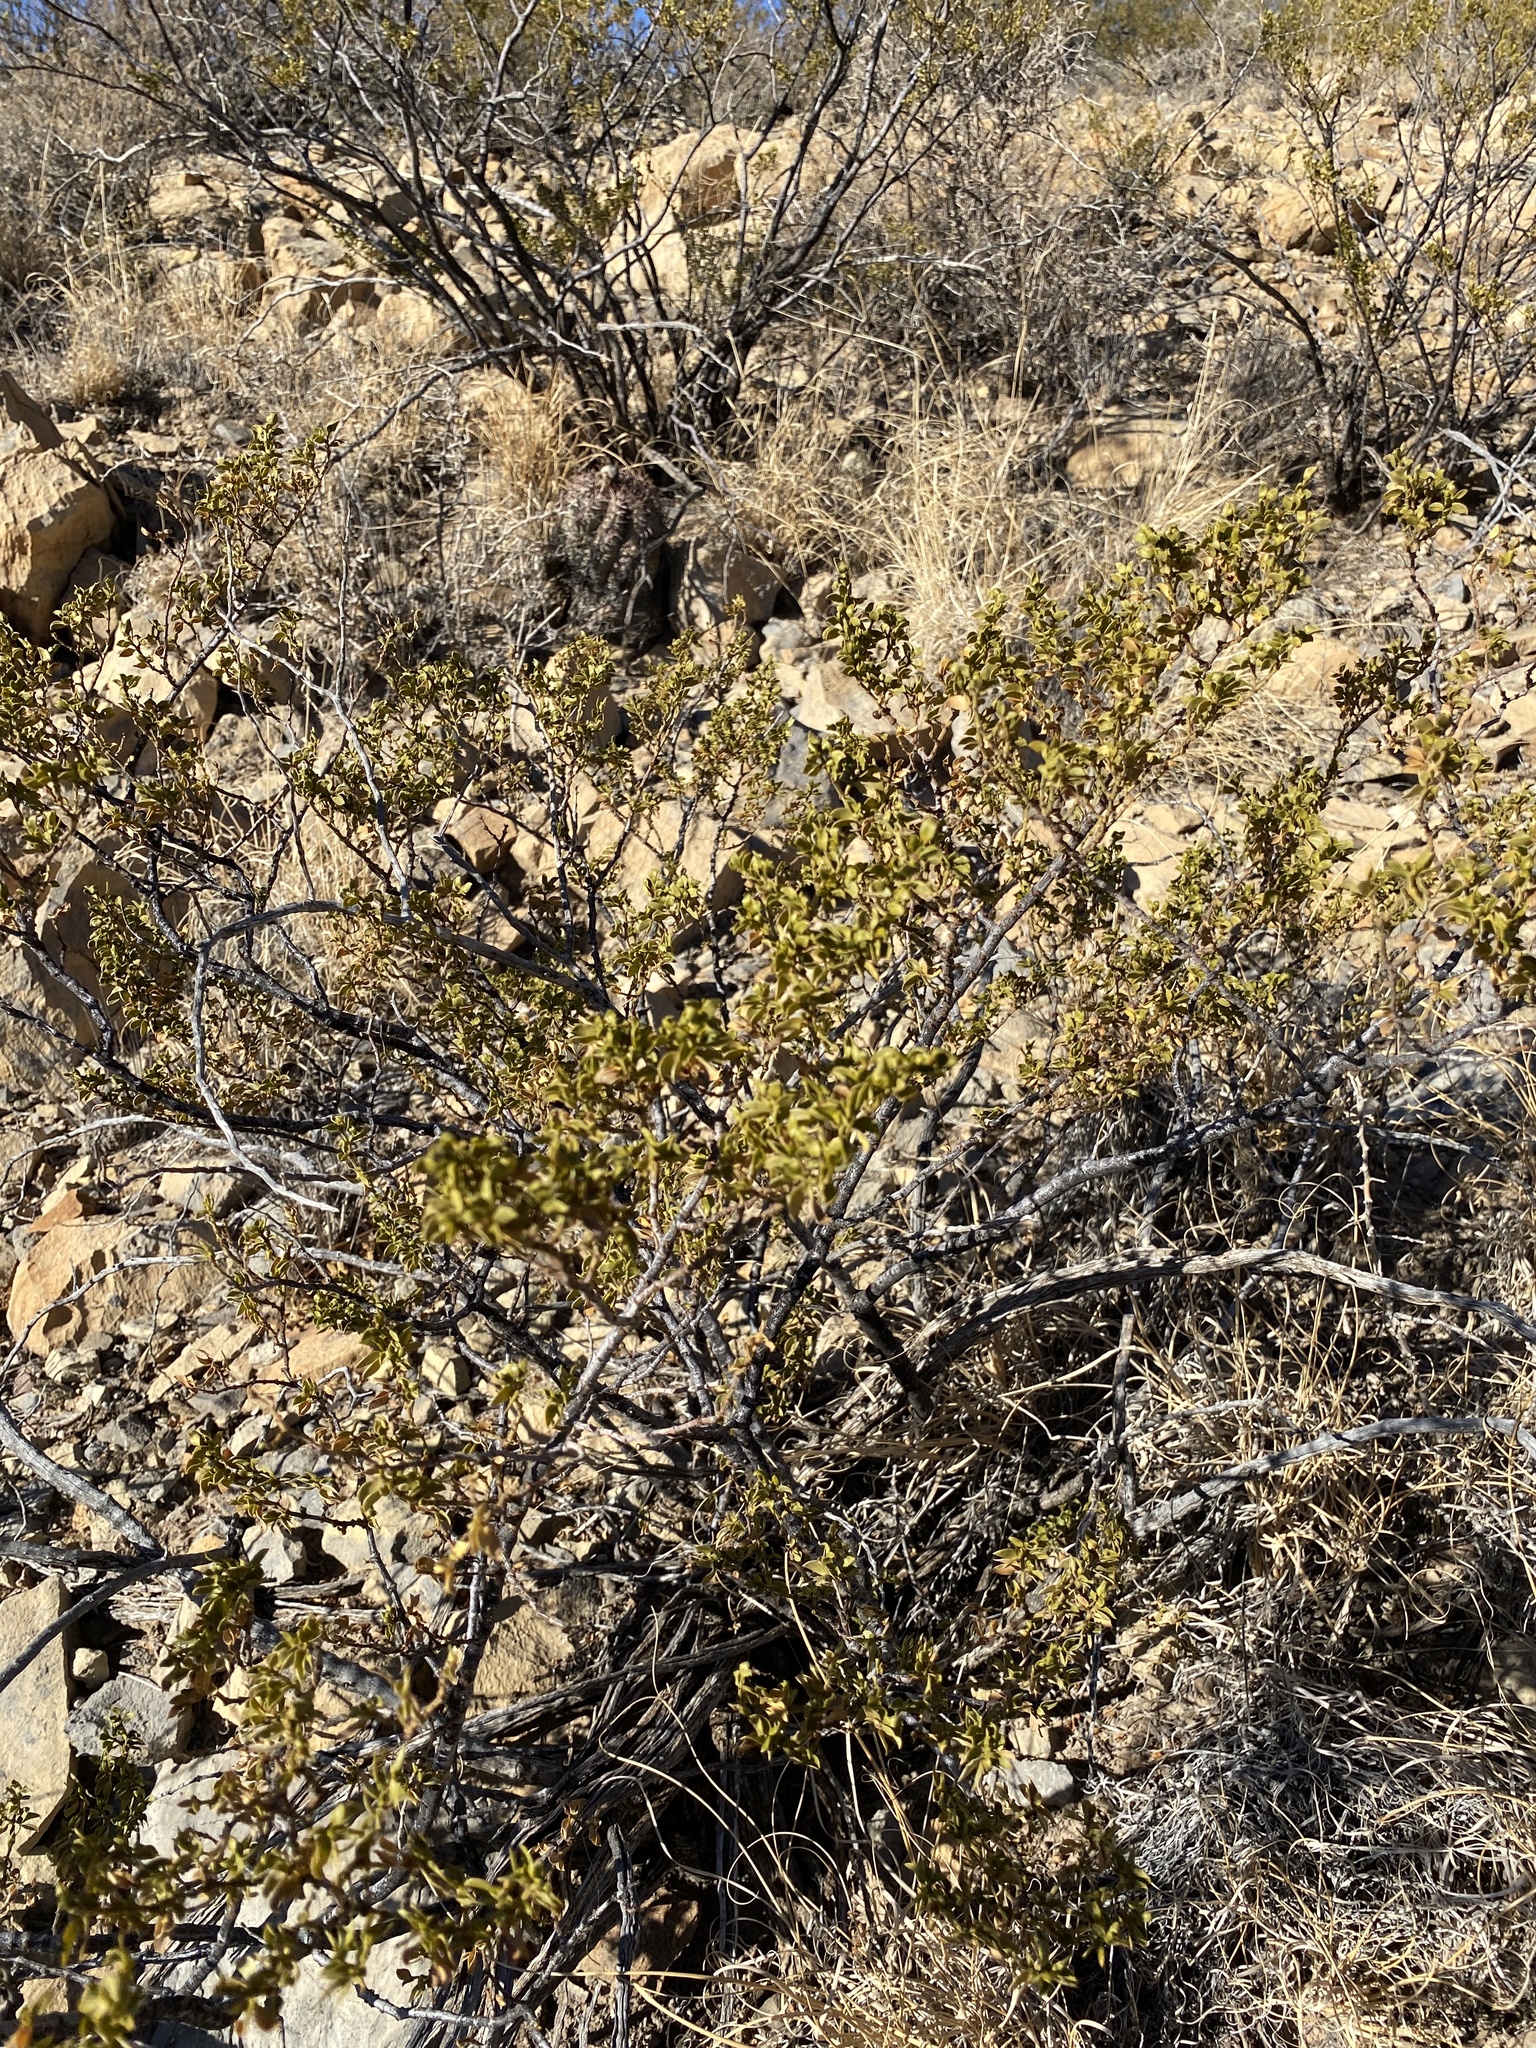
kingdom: Plantae
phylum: Tracheophyta
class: Magnoliopsida
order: Zygophyllales
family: Zygophyllaceae
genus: Larrea
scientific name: Larrea tridentata
